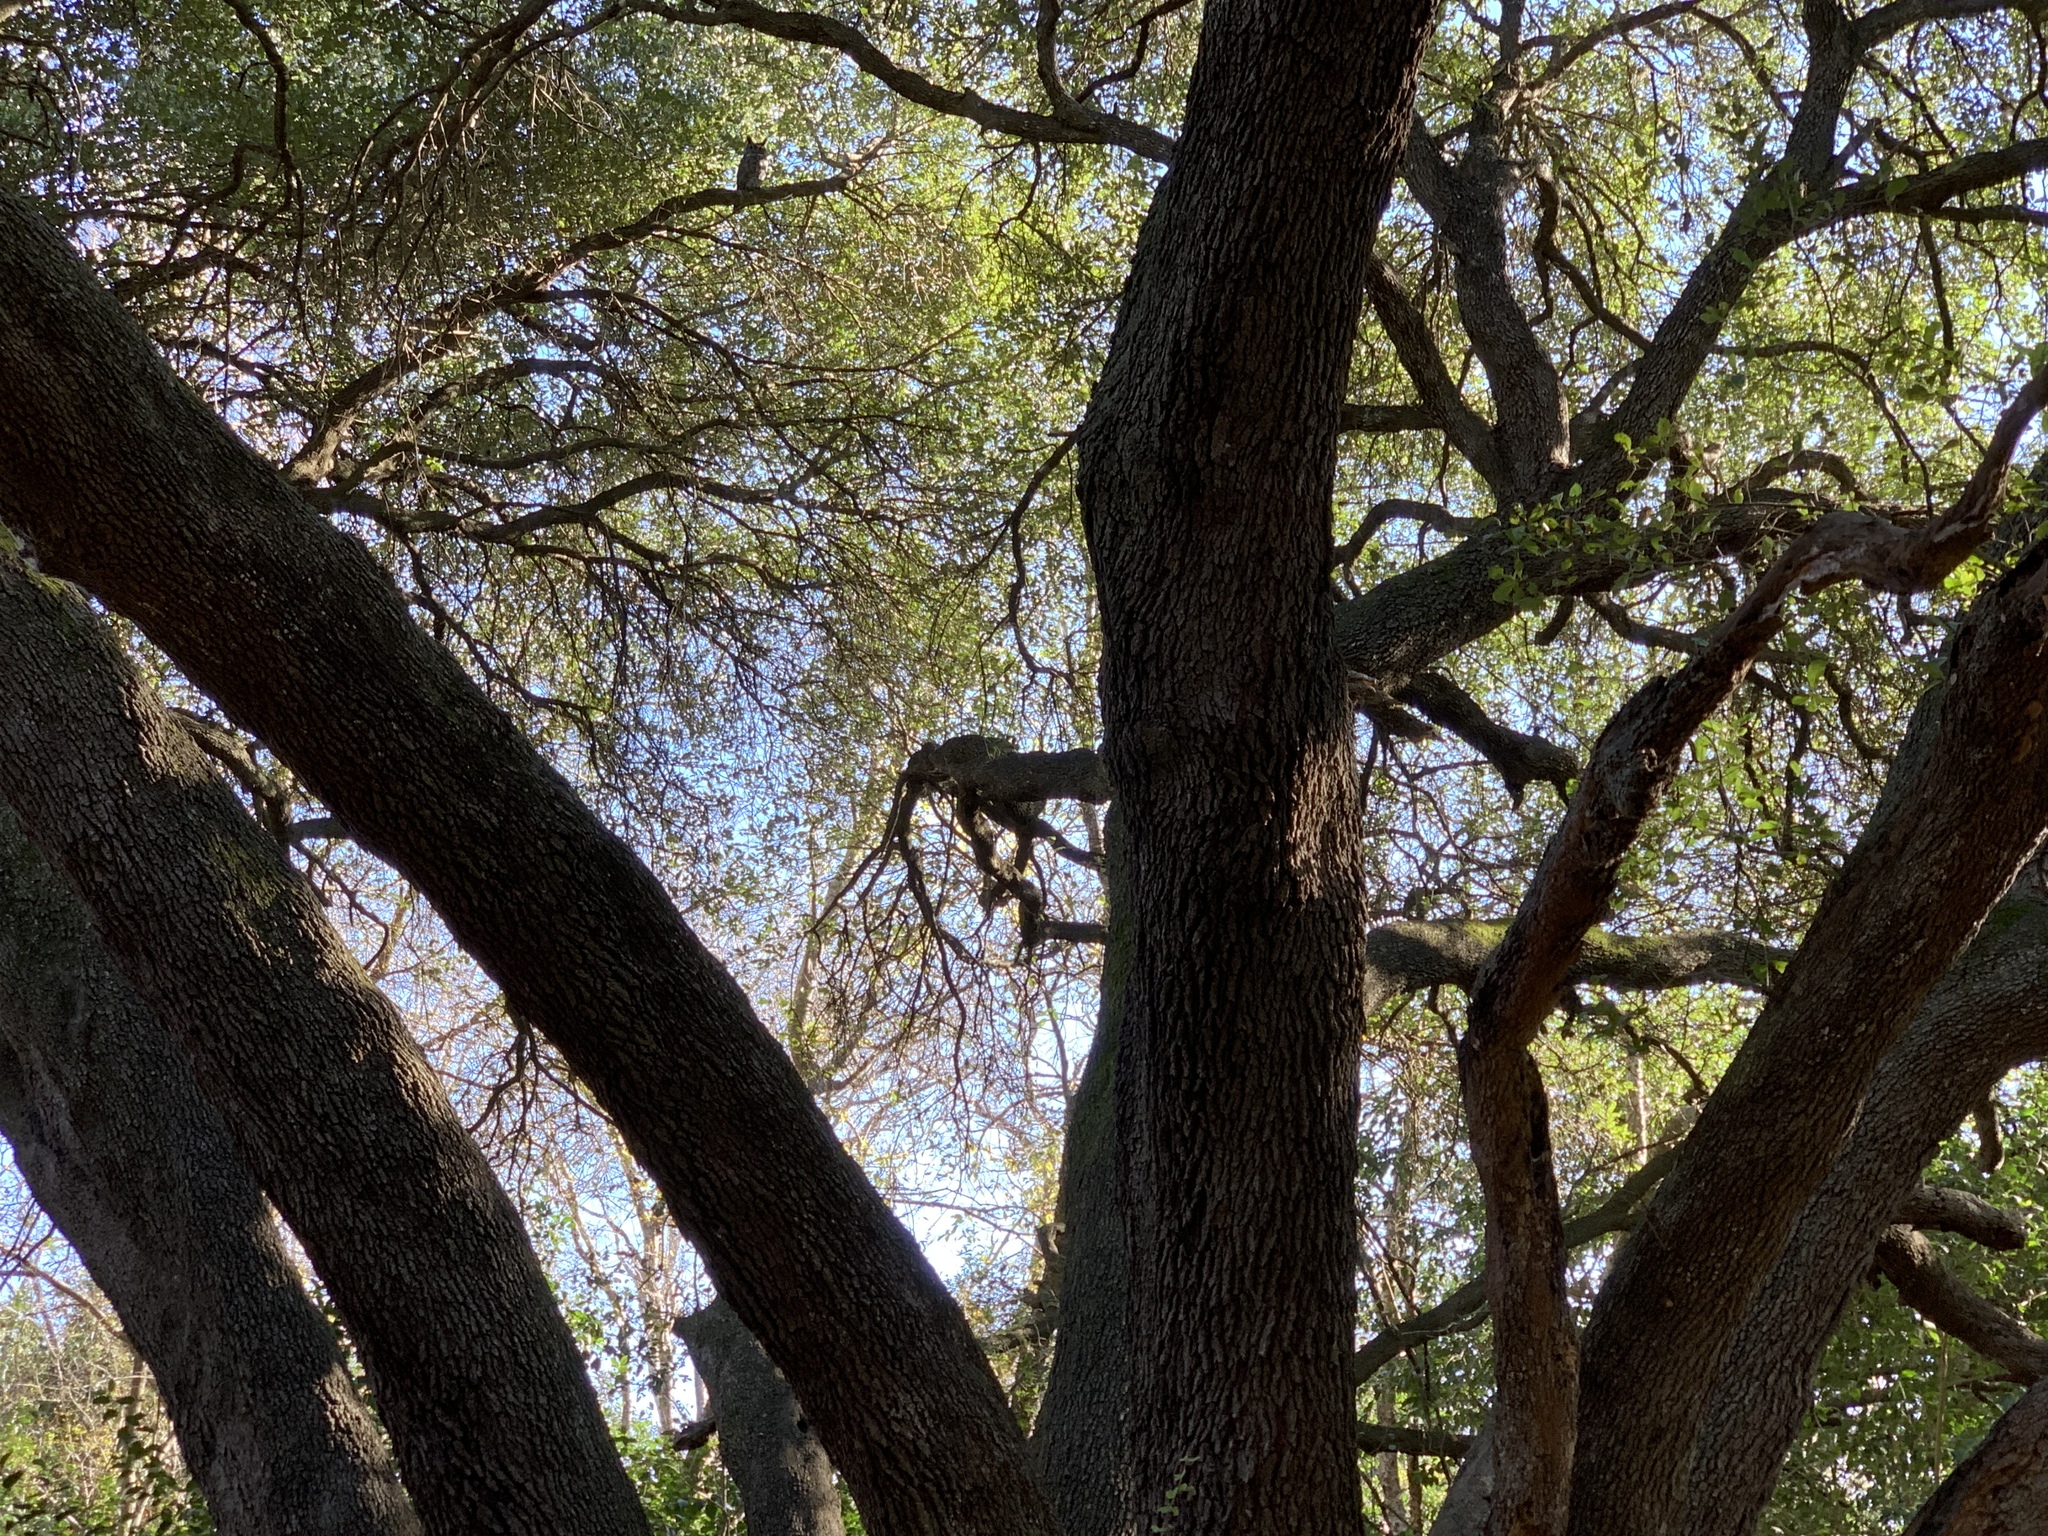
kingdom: Animalia
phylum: Chordata
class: Aves
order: Strigiformes
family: Strigidae
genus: Bubo
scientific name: Bubo virginianus
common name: Great horned owl
